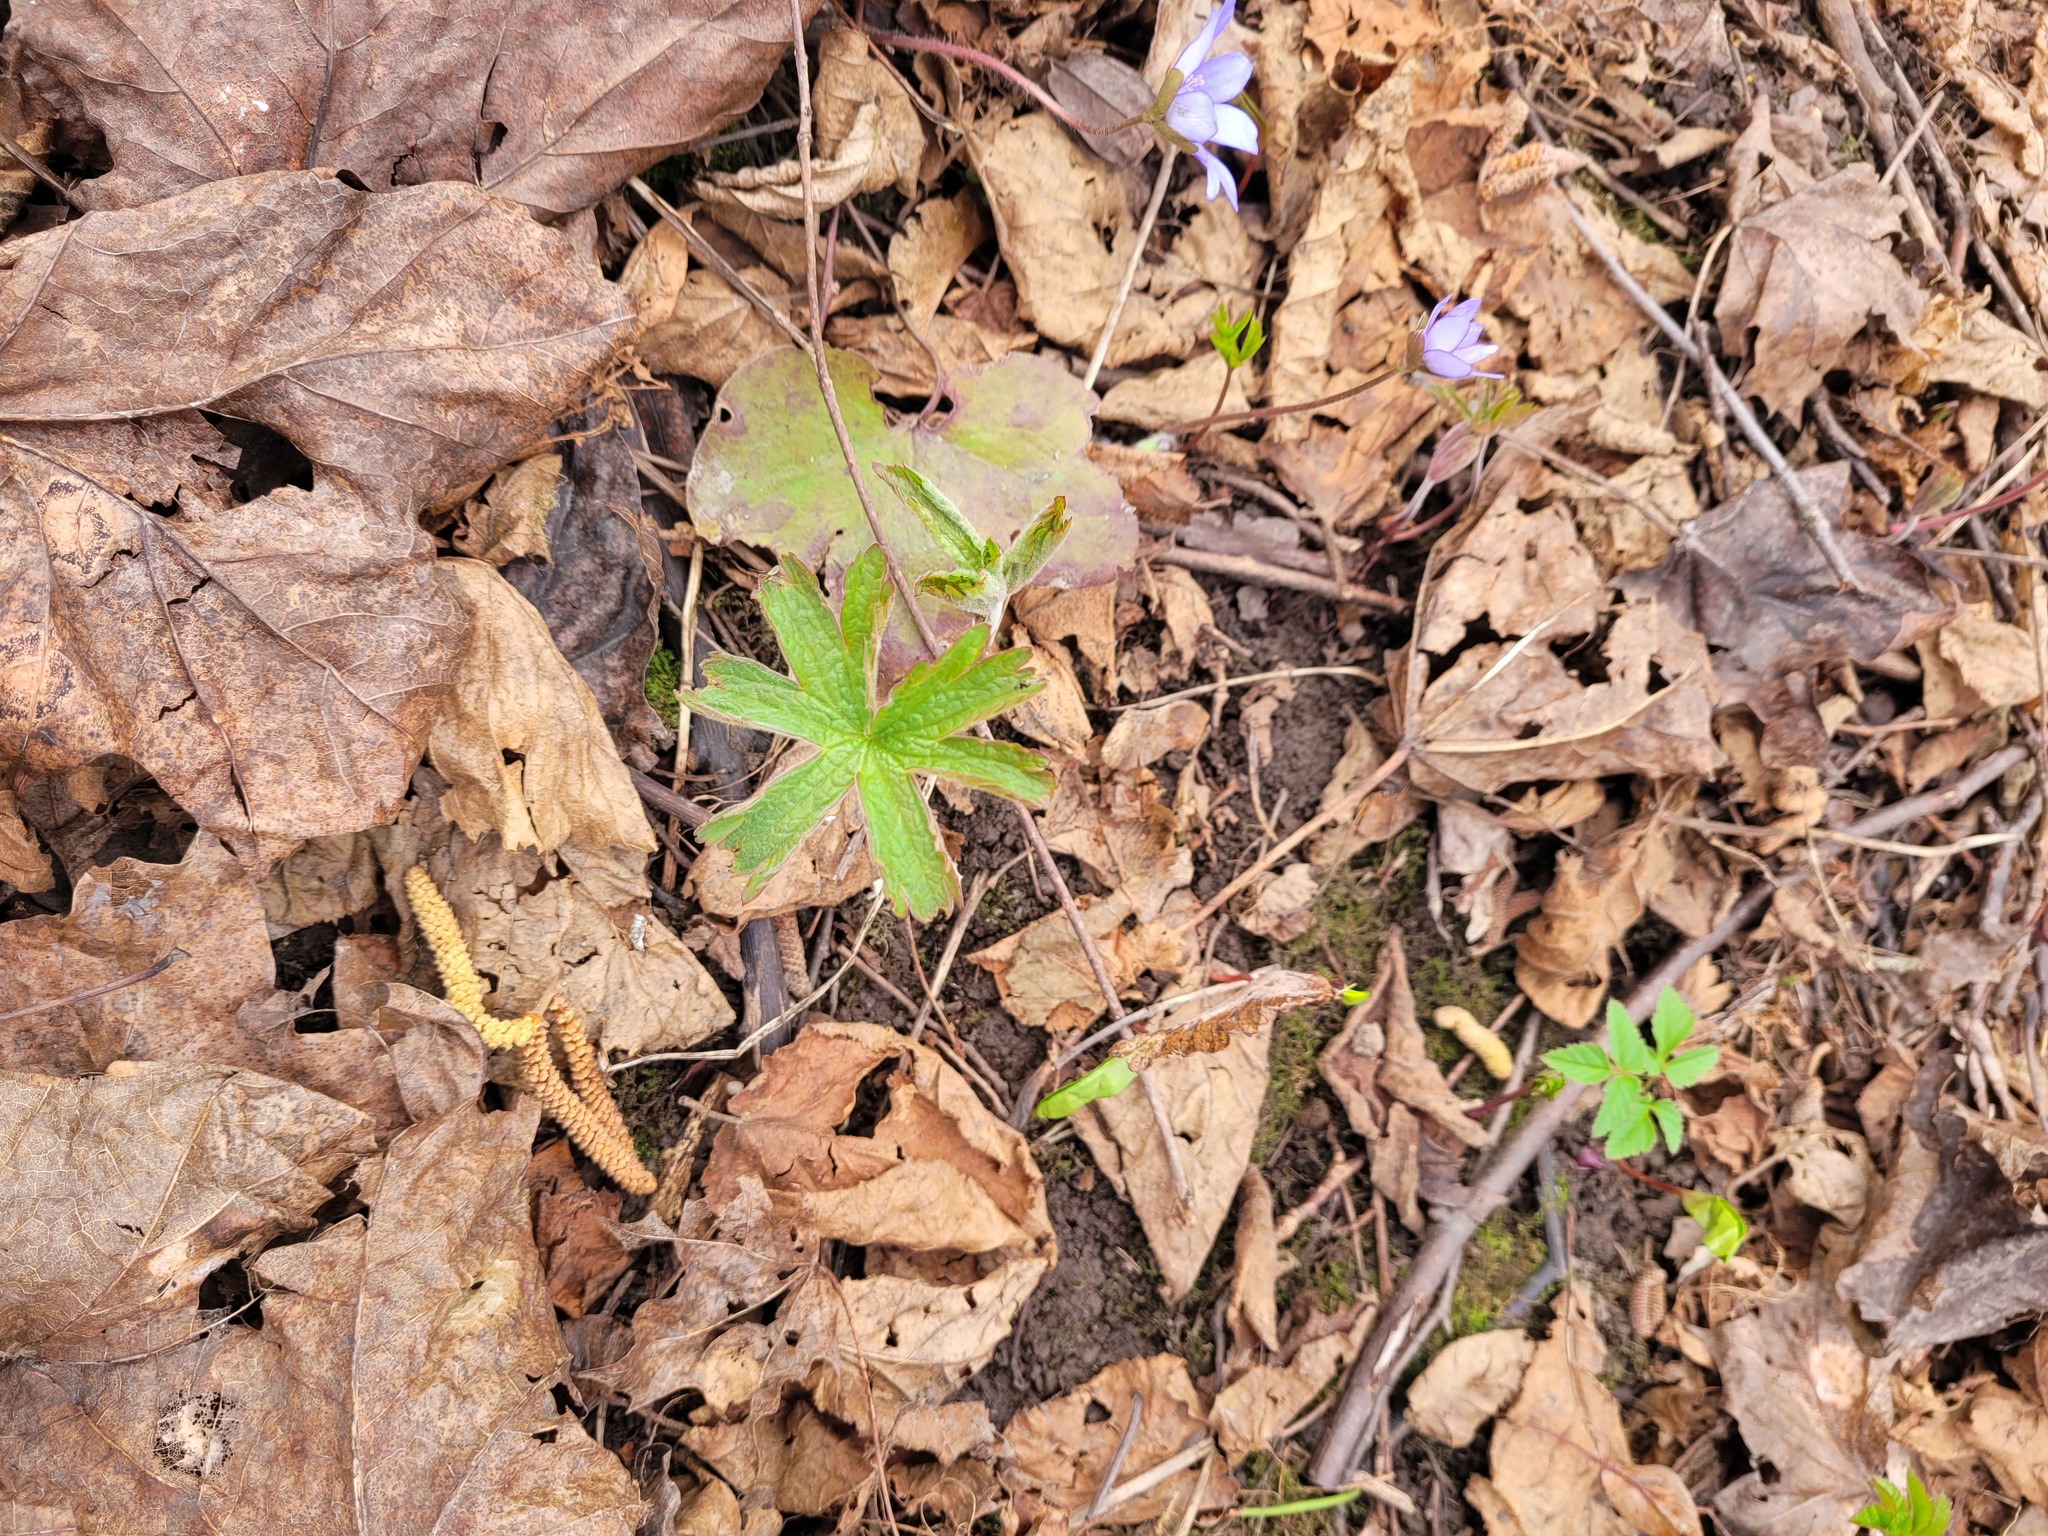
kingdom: Plantae
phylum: Tracheophyta
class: Magnoliopsida
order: Geraniales
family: Geraniaceae
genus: Geranium
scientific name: Geranium sylvaticum
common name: Wood crane's-bill
